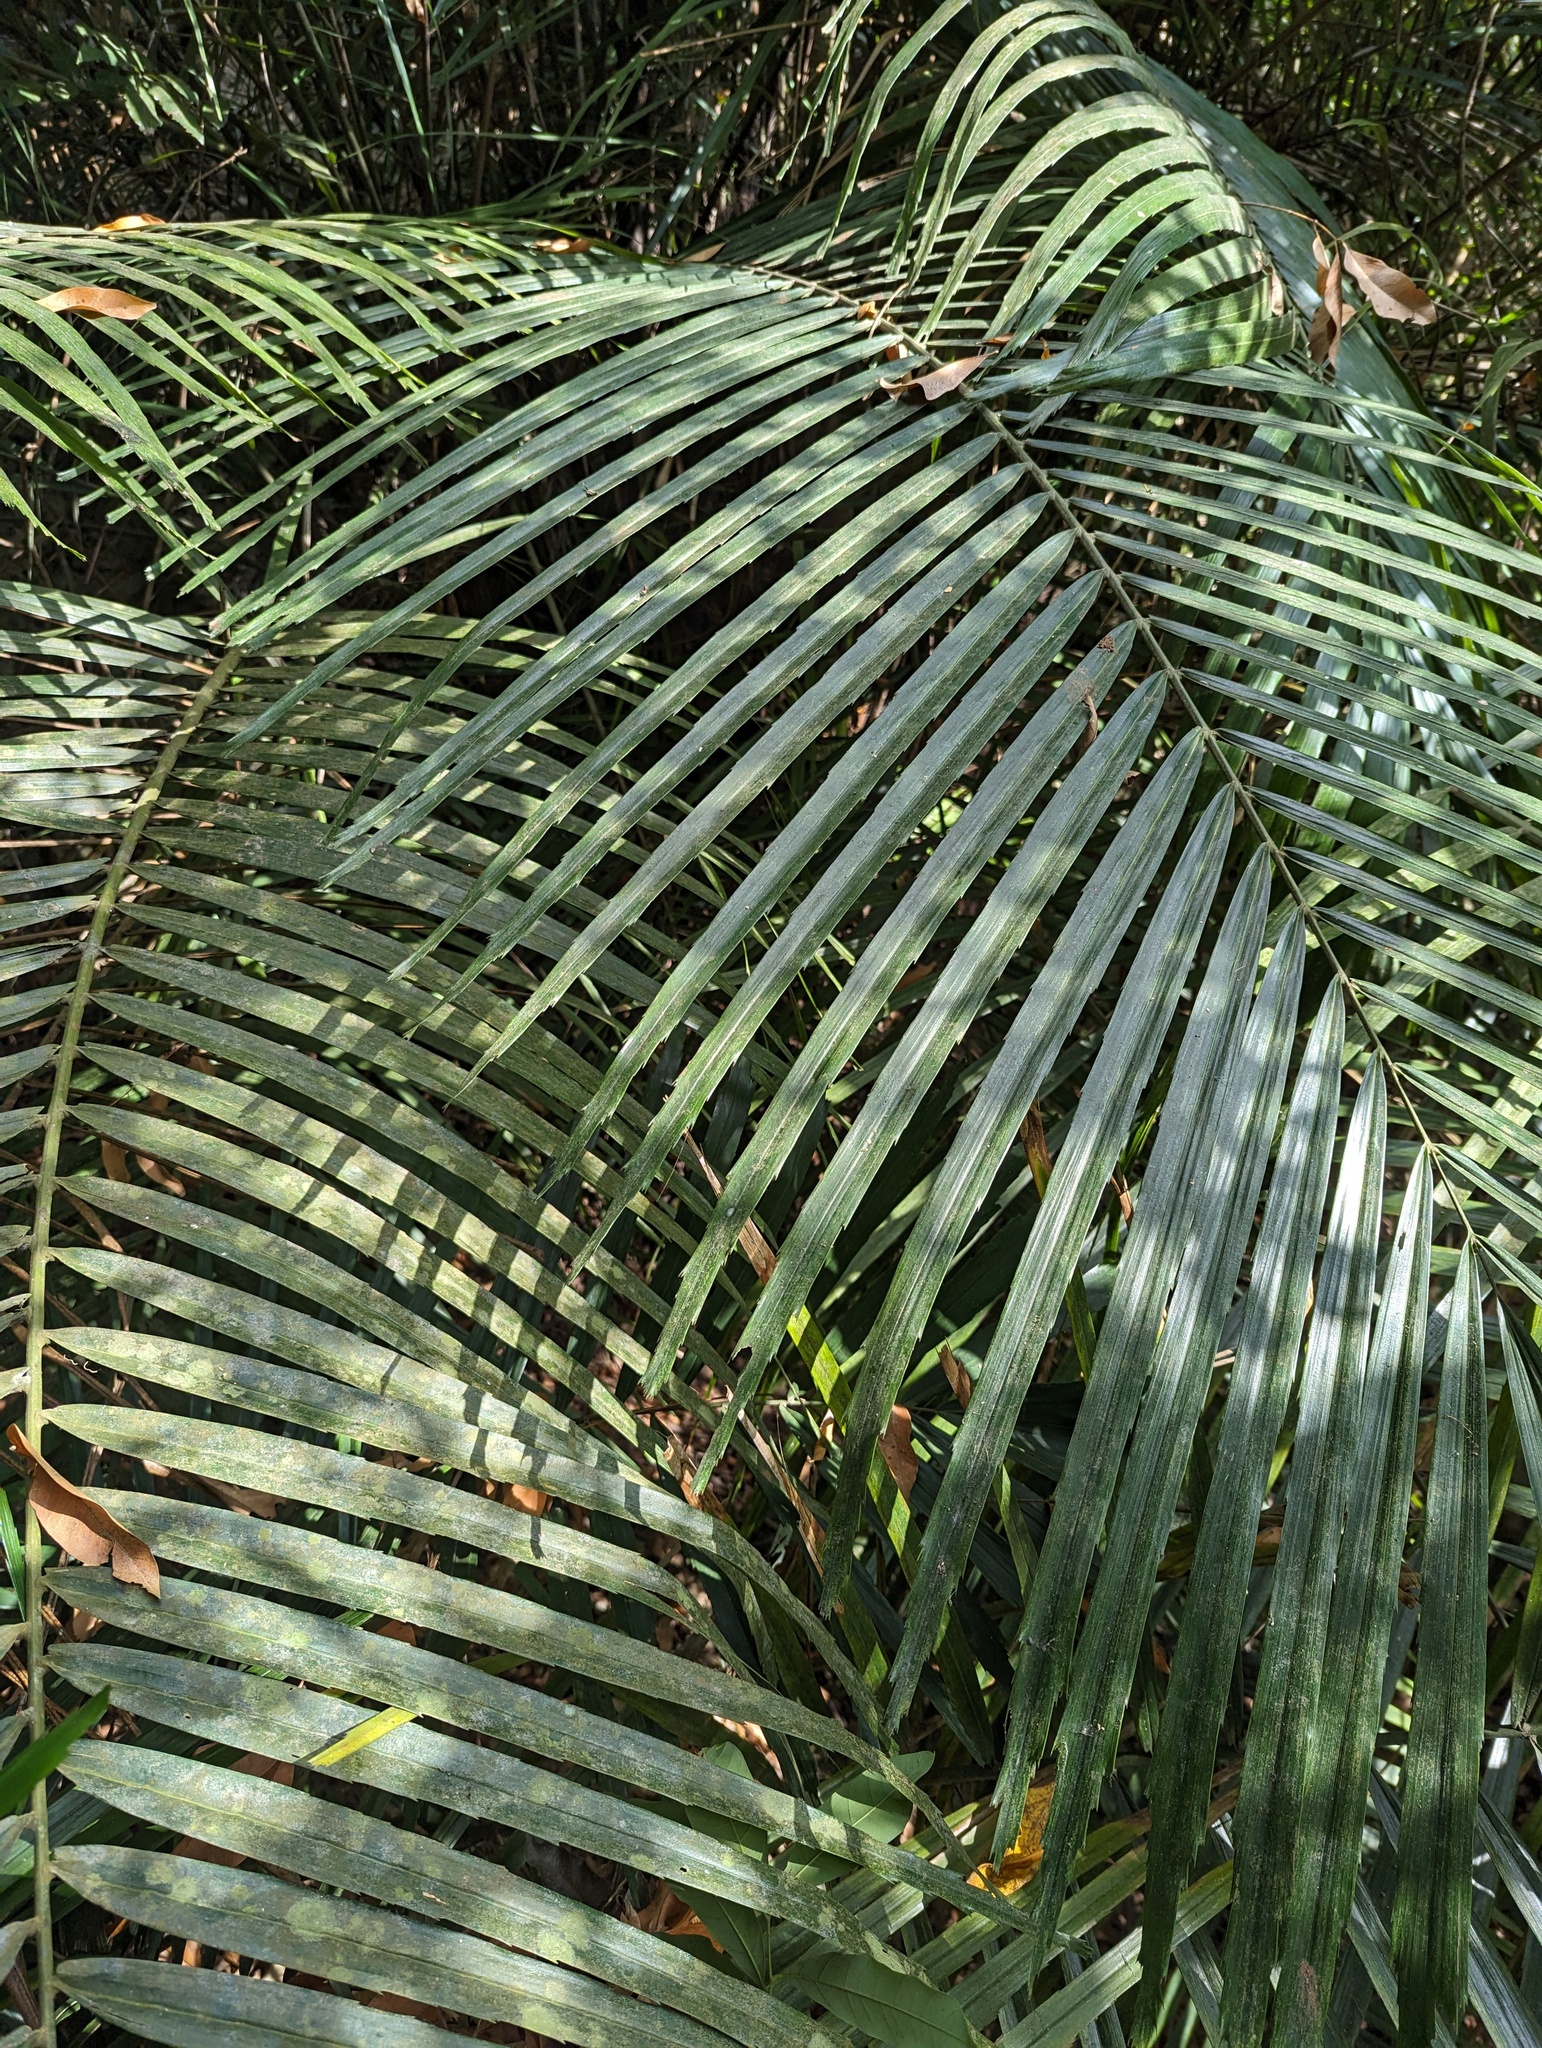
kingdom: Plantae
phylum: Tracheophyta
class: Liliopsida
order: Arecales
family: Arecaceae
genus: Arenga
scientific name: Arenga engleri
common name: Formosan sugar palm
